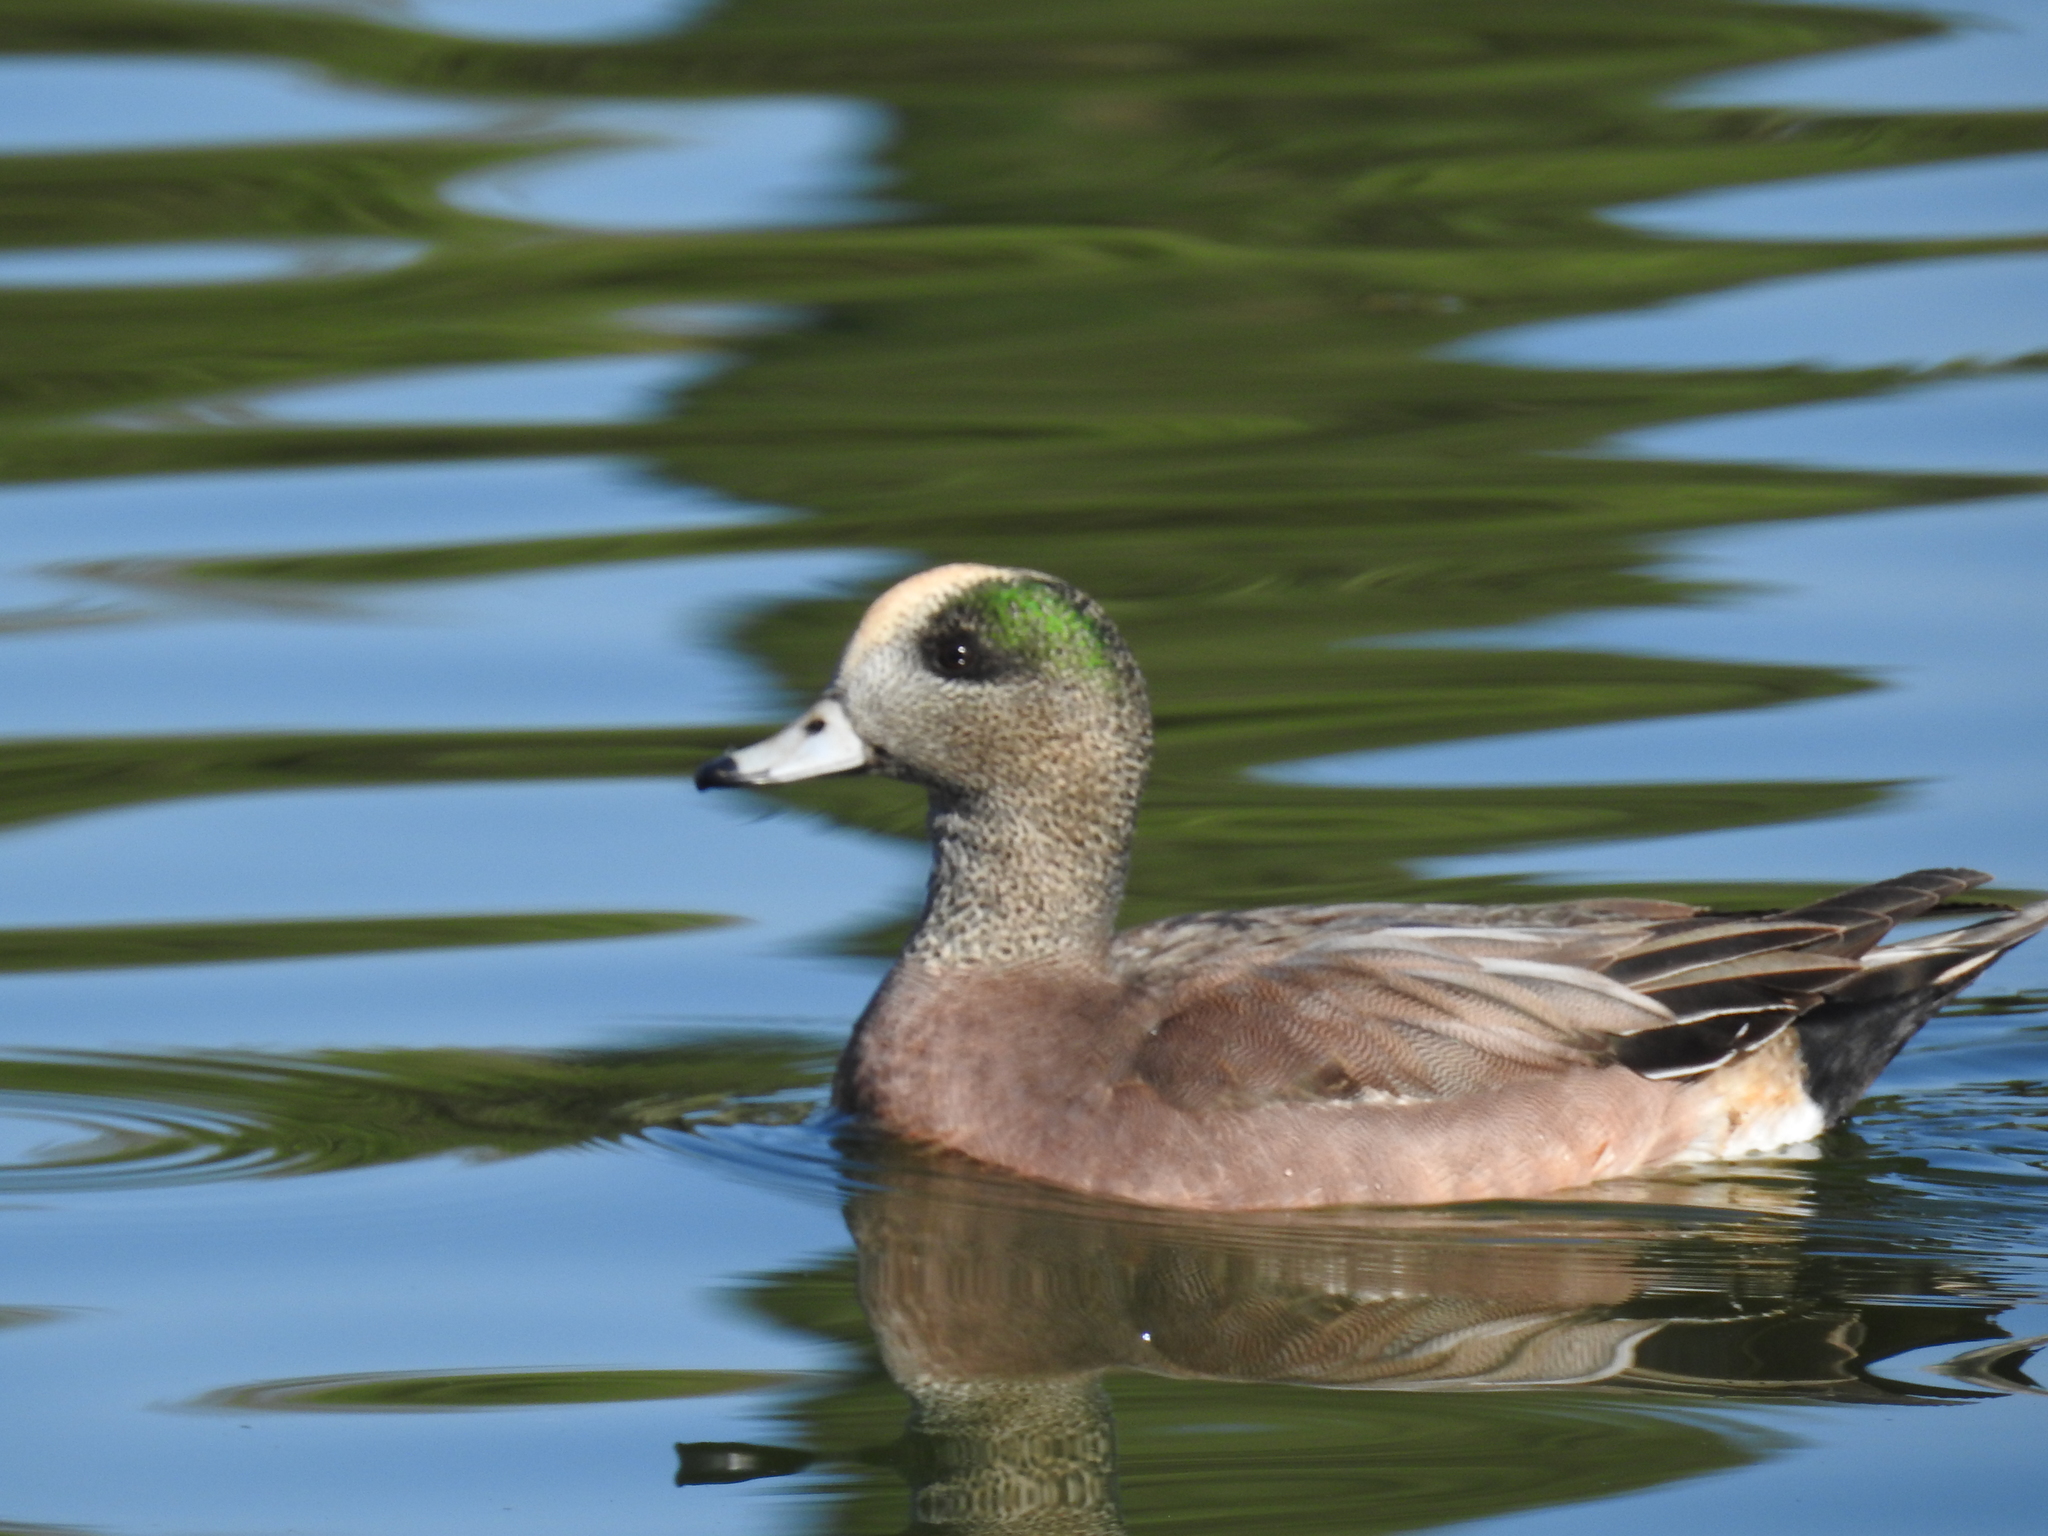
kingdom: Animalia
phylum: Chordata
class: Aves
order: Anseriformes
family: Anatidae
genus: Mareca
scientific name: Mareca americana
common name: American wigeon
